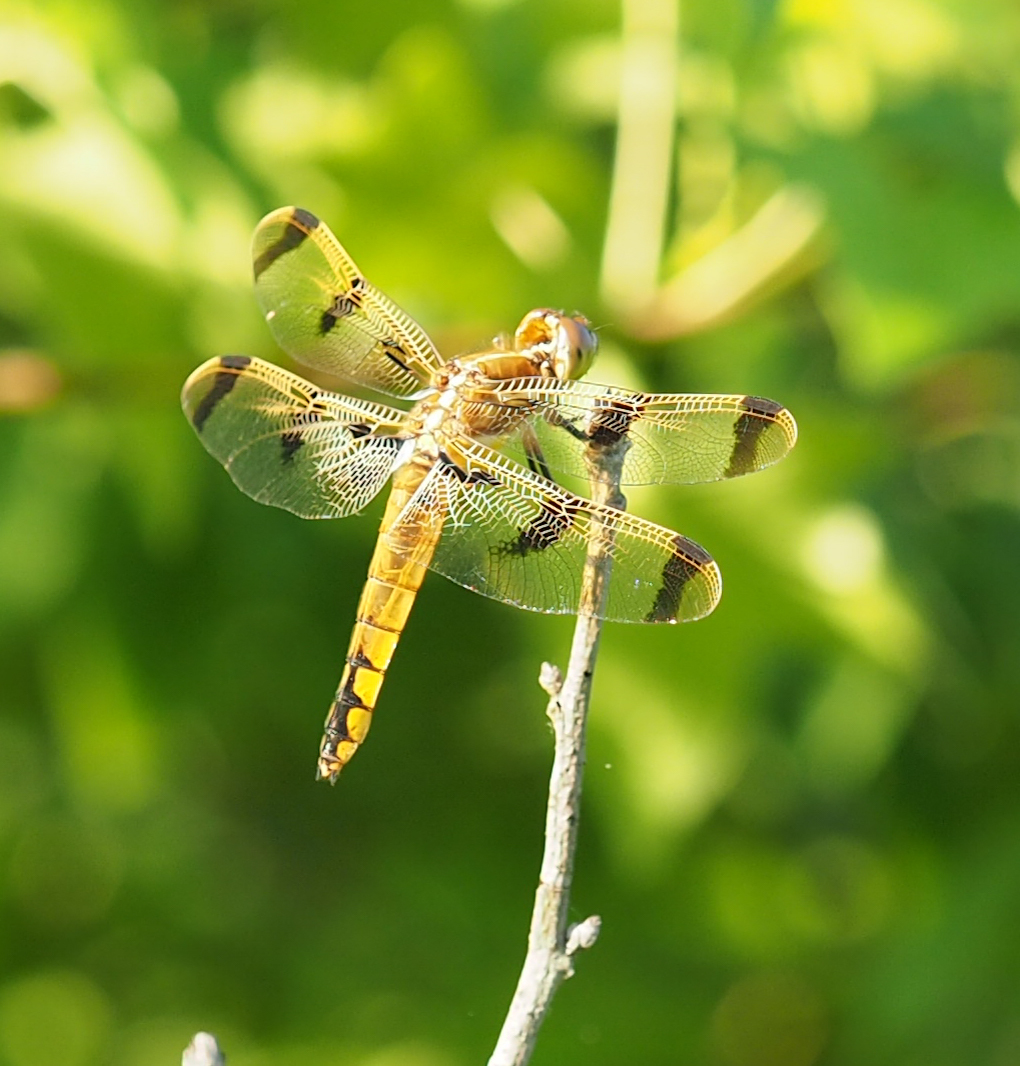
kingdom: Animalia
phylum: Arthropoda
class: Insecta
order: Odonata
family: Libellulidae
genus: Libellula
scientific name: Libellula semifasciata
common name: Painted skimmer
